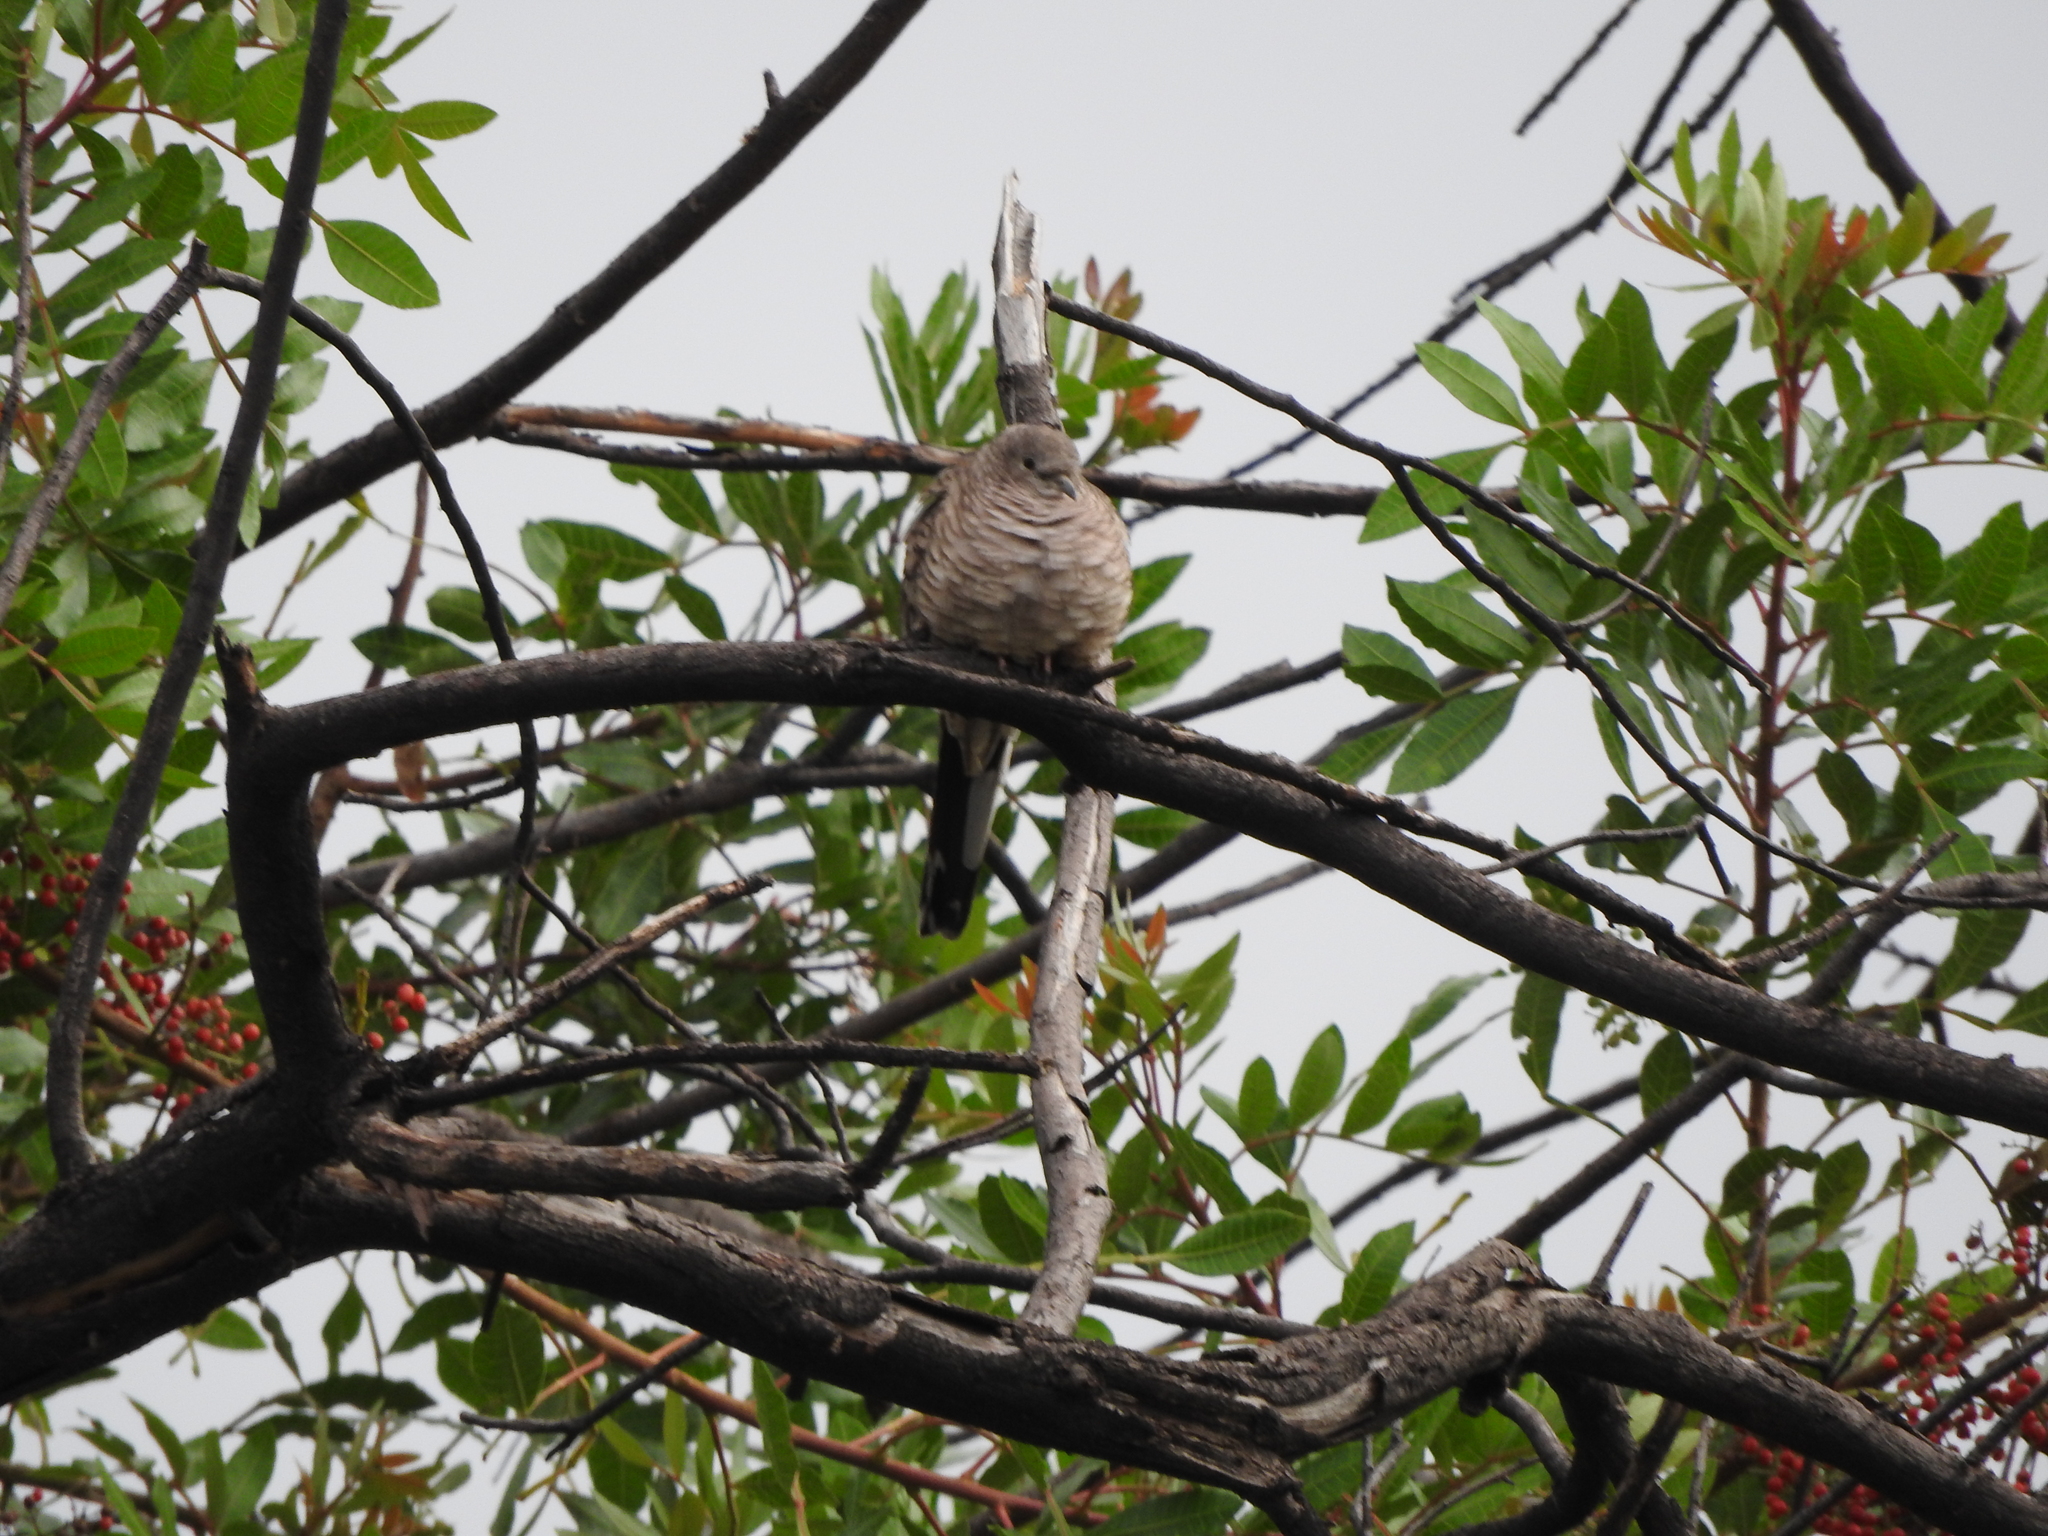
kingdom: Animalia
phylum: Chordata
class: Aves
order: Columbiformes
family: Columbidae
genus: Columbina
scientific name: Columbina inca
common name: Inca dove
